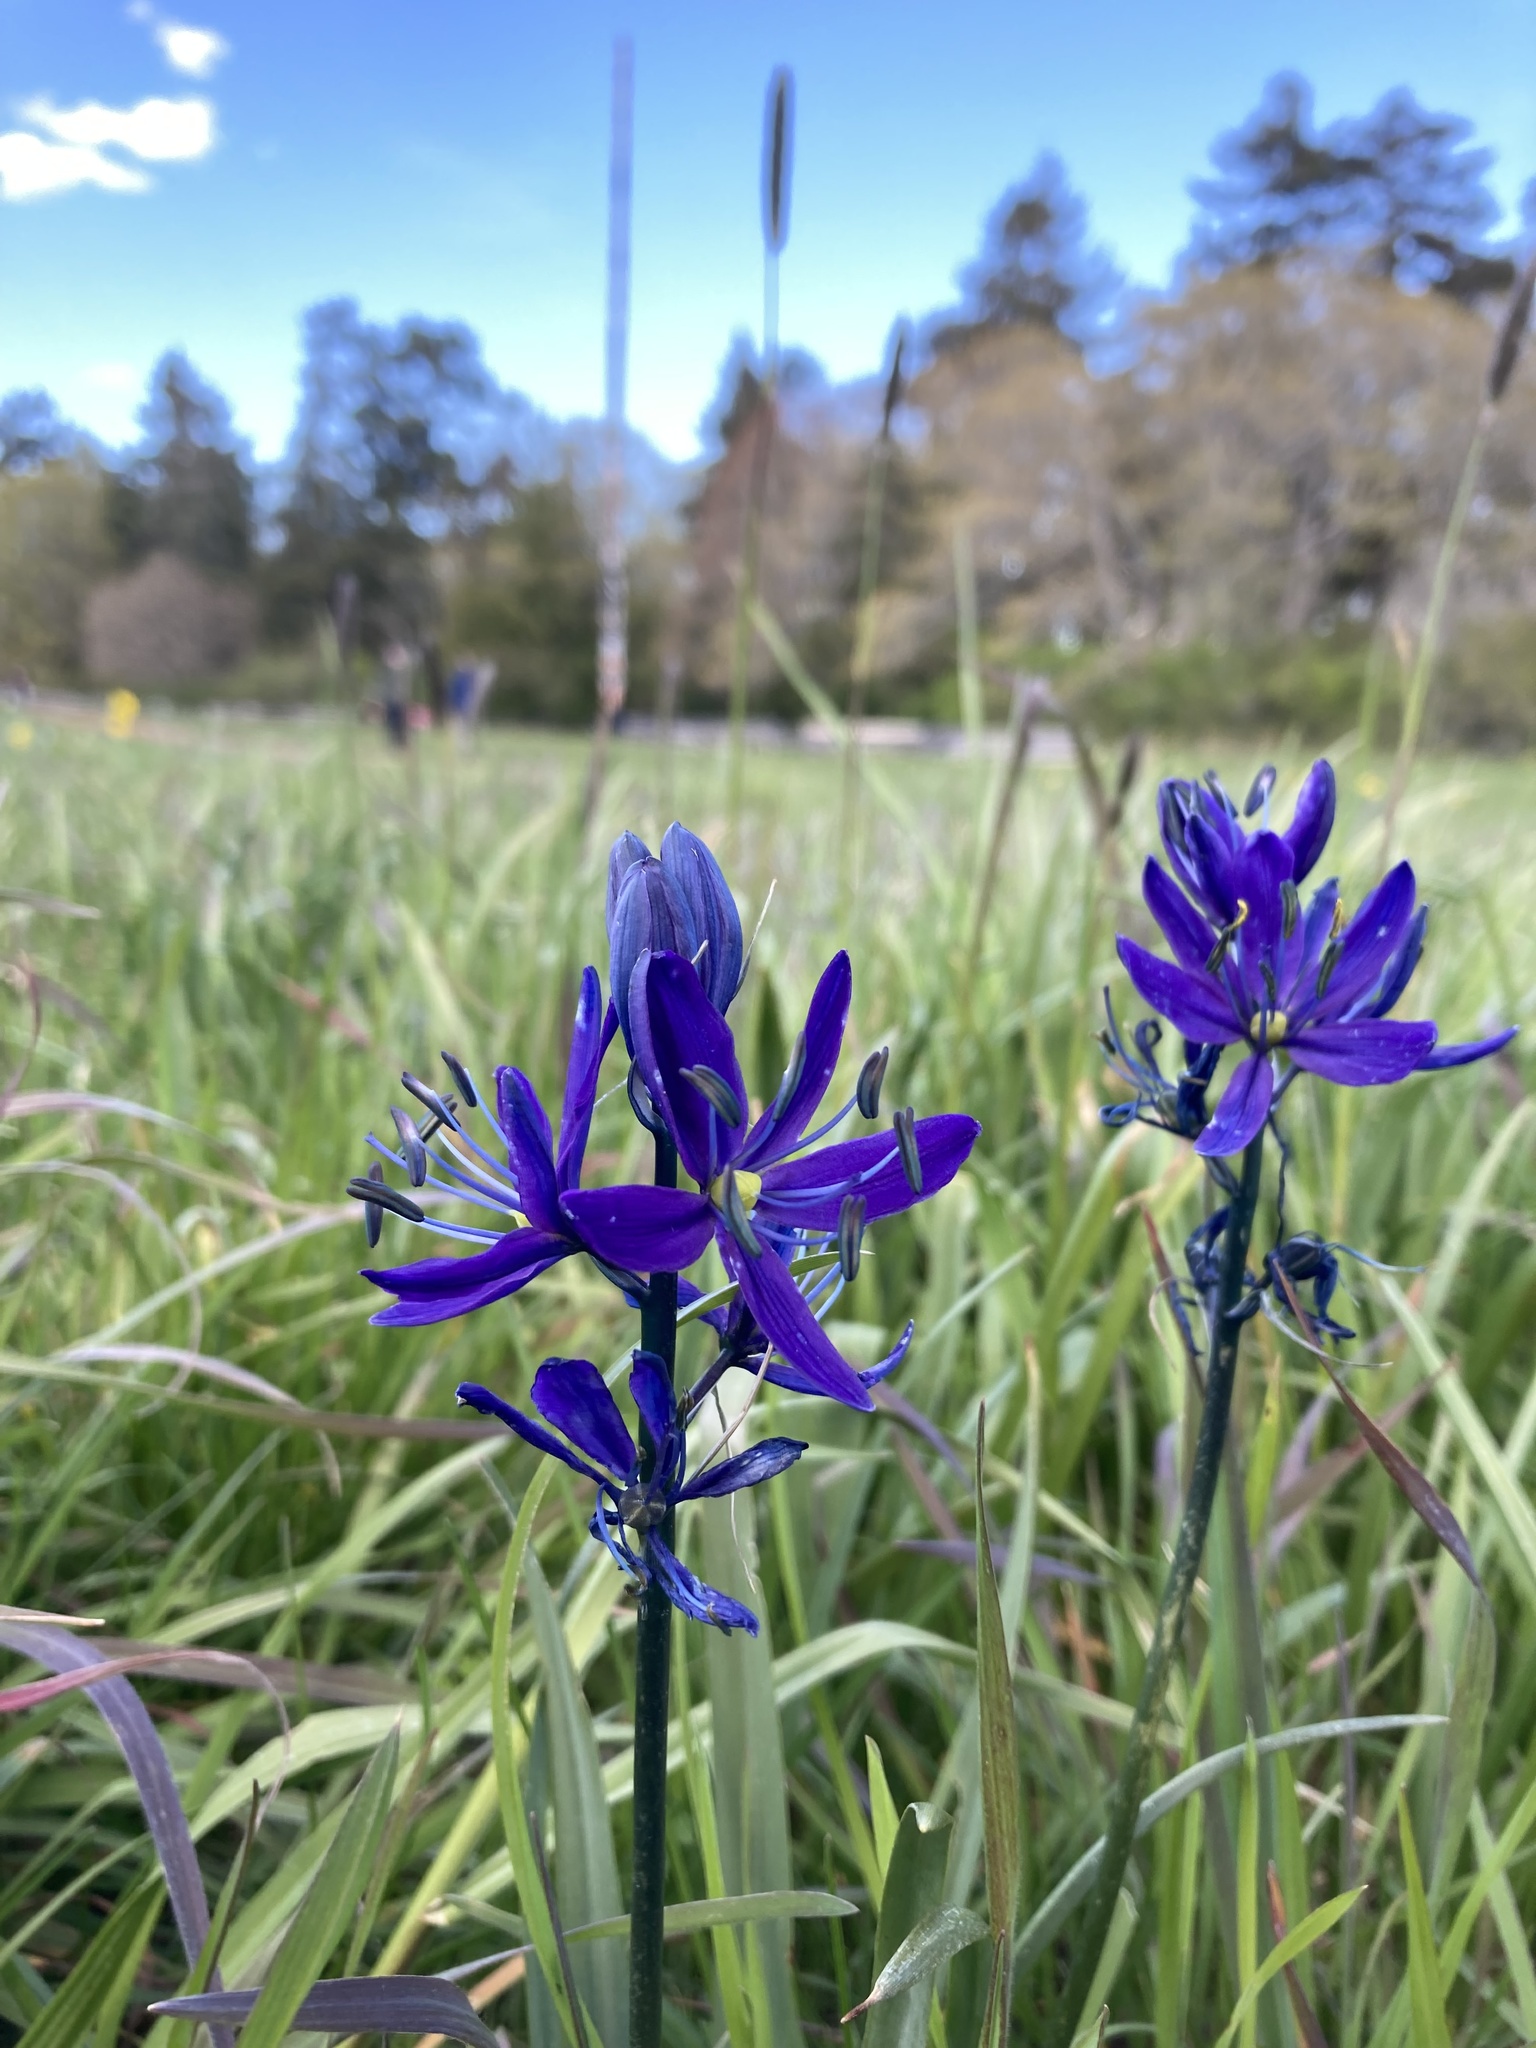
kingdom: Plantae
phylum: Tracheophyta
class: Liliopsida
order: Asparagales
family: Asparagaceae
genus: Camassia
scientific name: Camassia quamash
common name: Common camas
